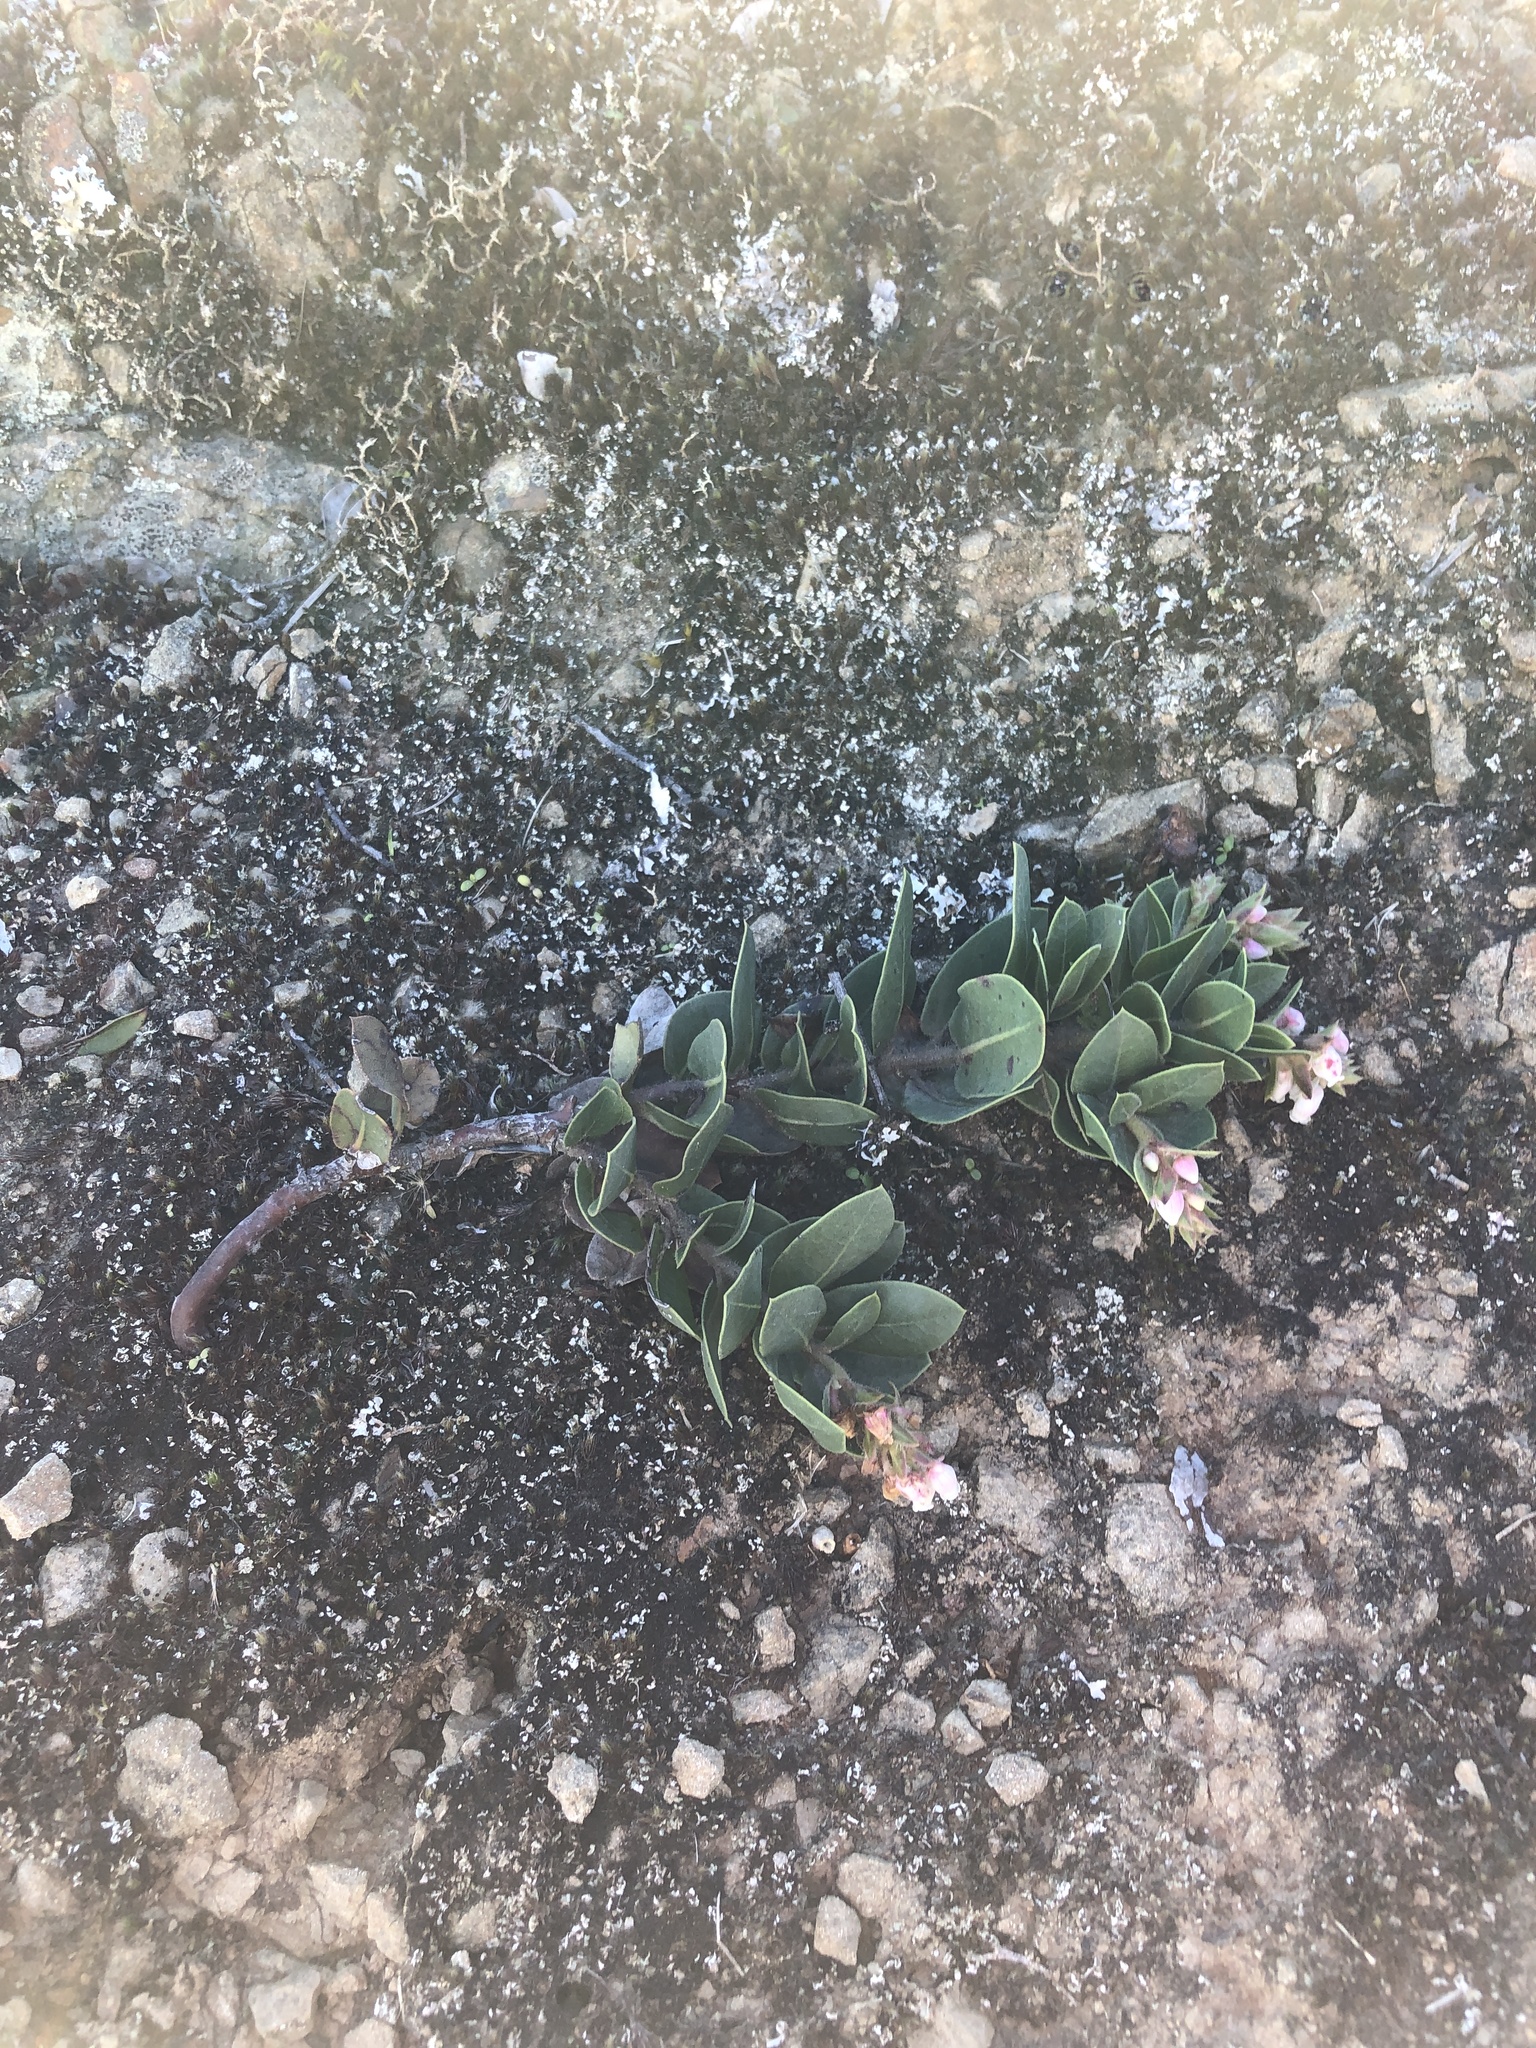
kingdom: Plantae
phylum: Tracheophyta
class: Magnoliopsida
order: Ericales
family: Ericaceae
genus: Arctostaphylos
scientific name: Arctostaphylos imbricata
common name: San bruno mountain manzanita
